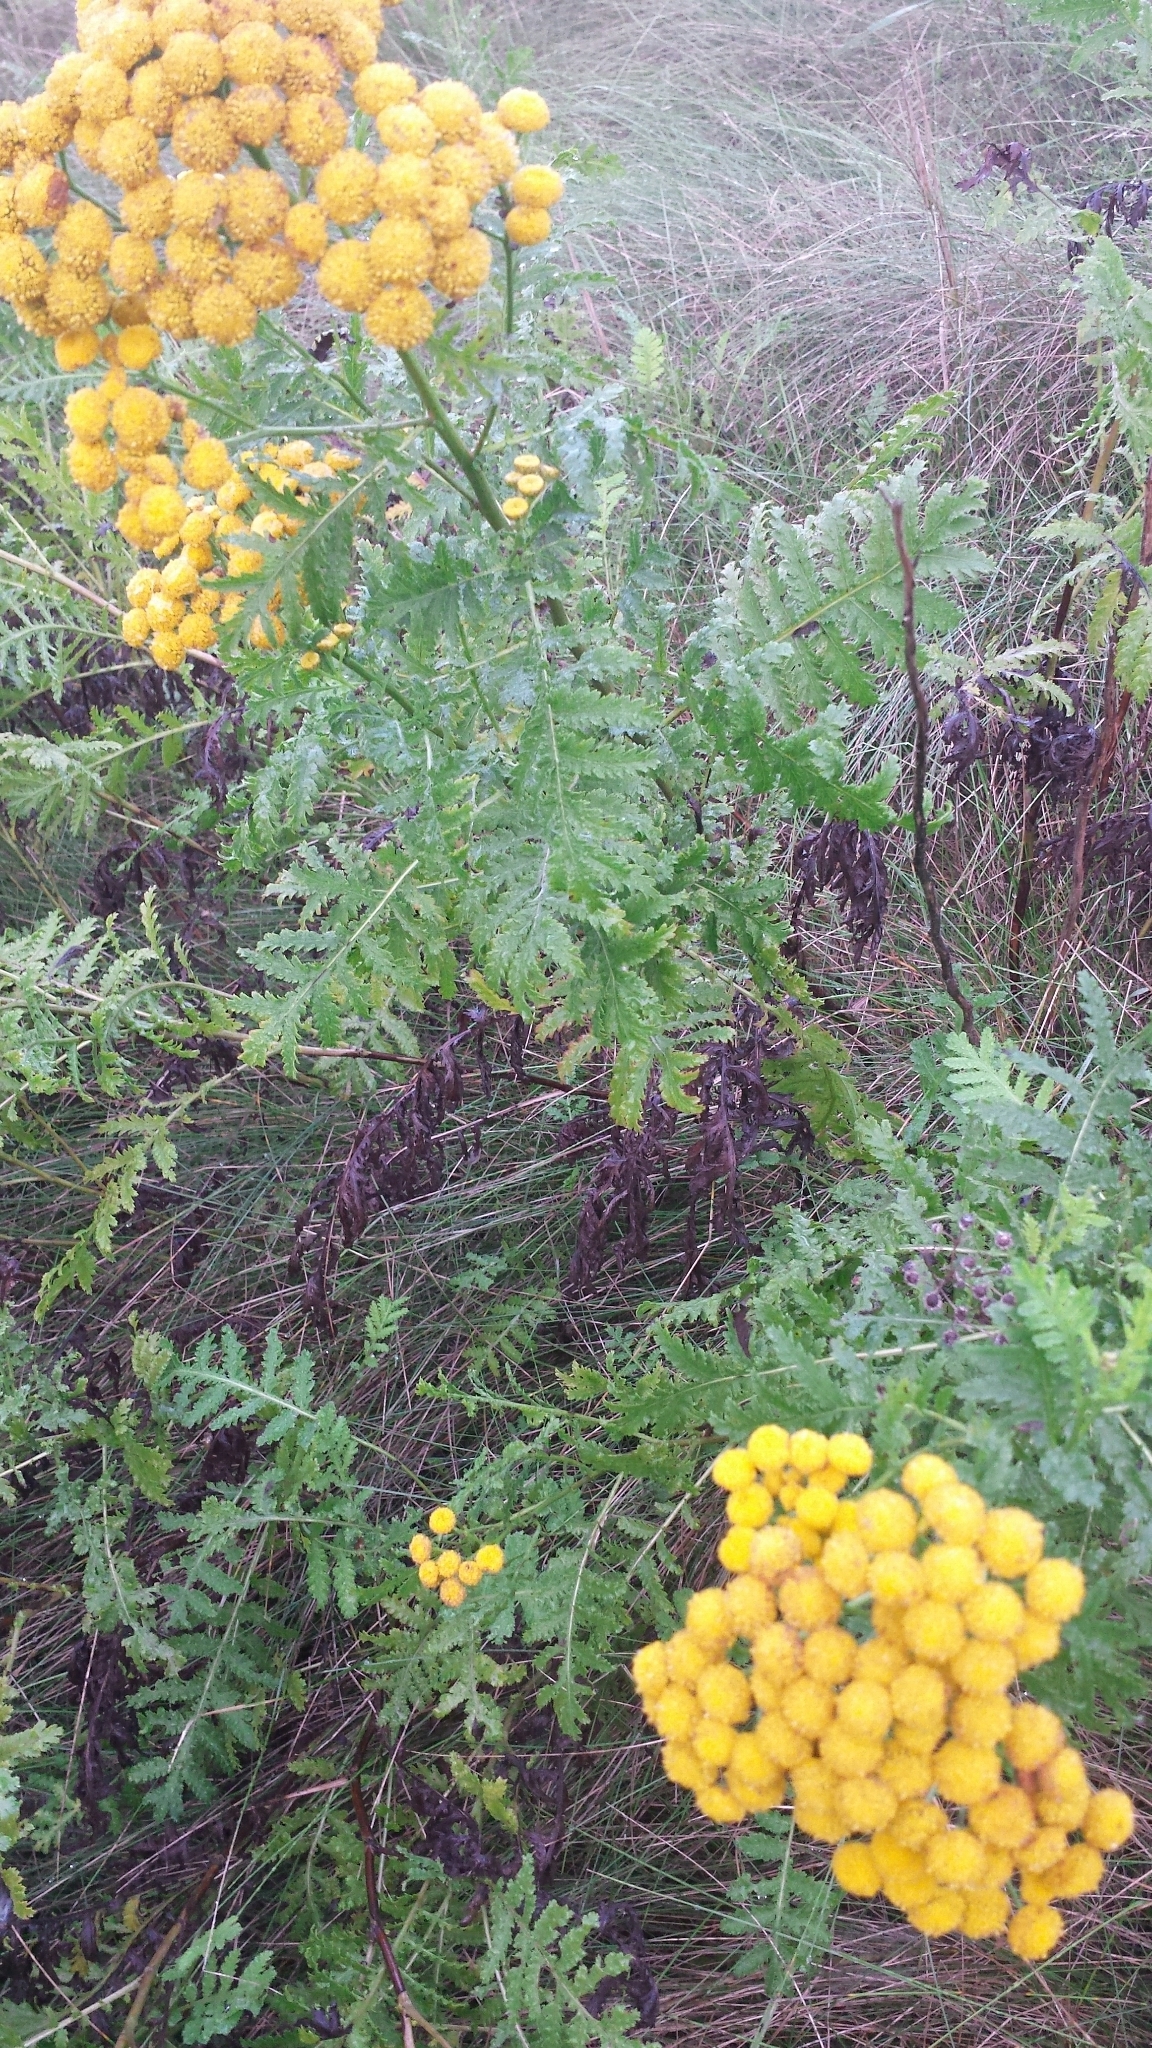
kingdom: Plantae
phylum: Tracheophyta
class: Magnoliopsida
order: Asterales
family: Asteraceae
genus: Tanacetum
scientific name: Tanacetum vulgare
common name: Common tansy
